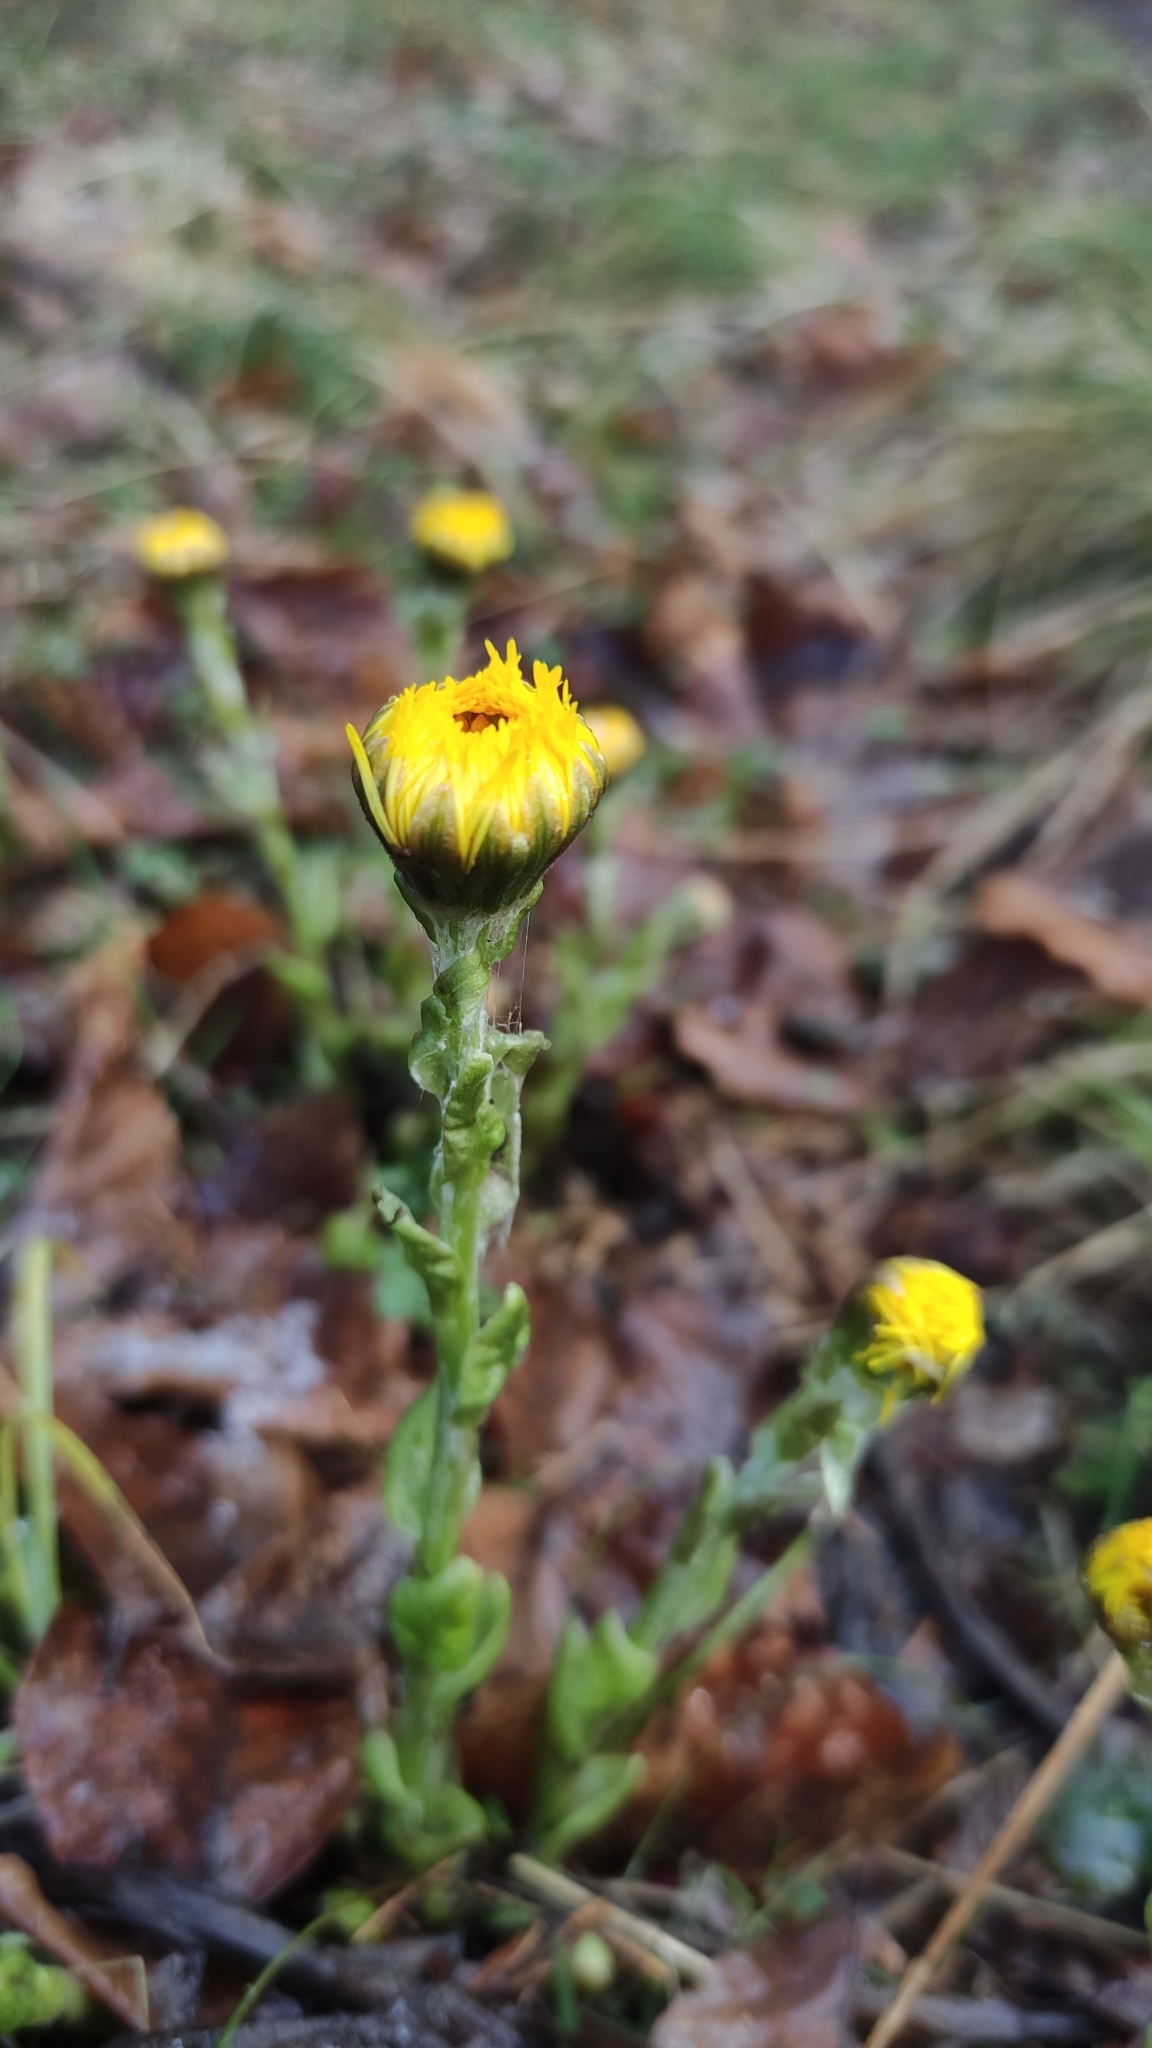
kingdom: Plantae
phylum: Tracheophyta
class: Magnoliopsida
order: Asterales
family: Asteraceae
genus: Tussilago
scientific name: Tussilago farfara
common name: Coltsfoot
